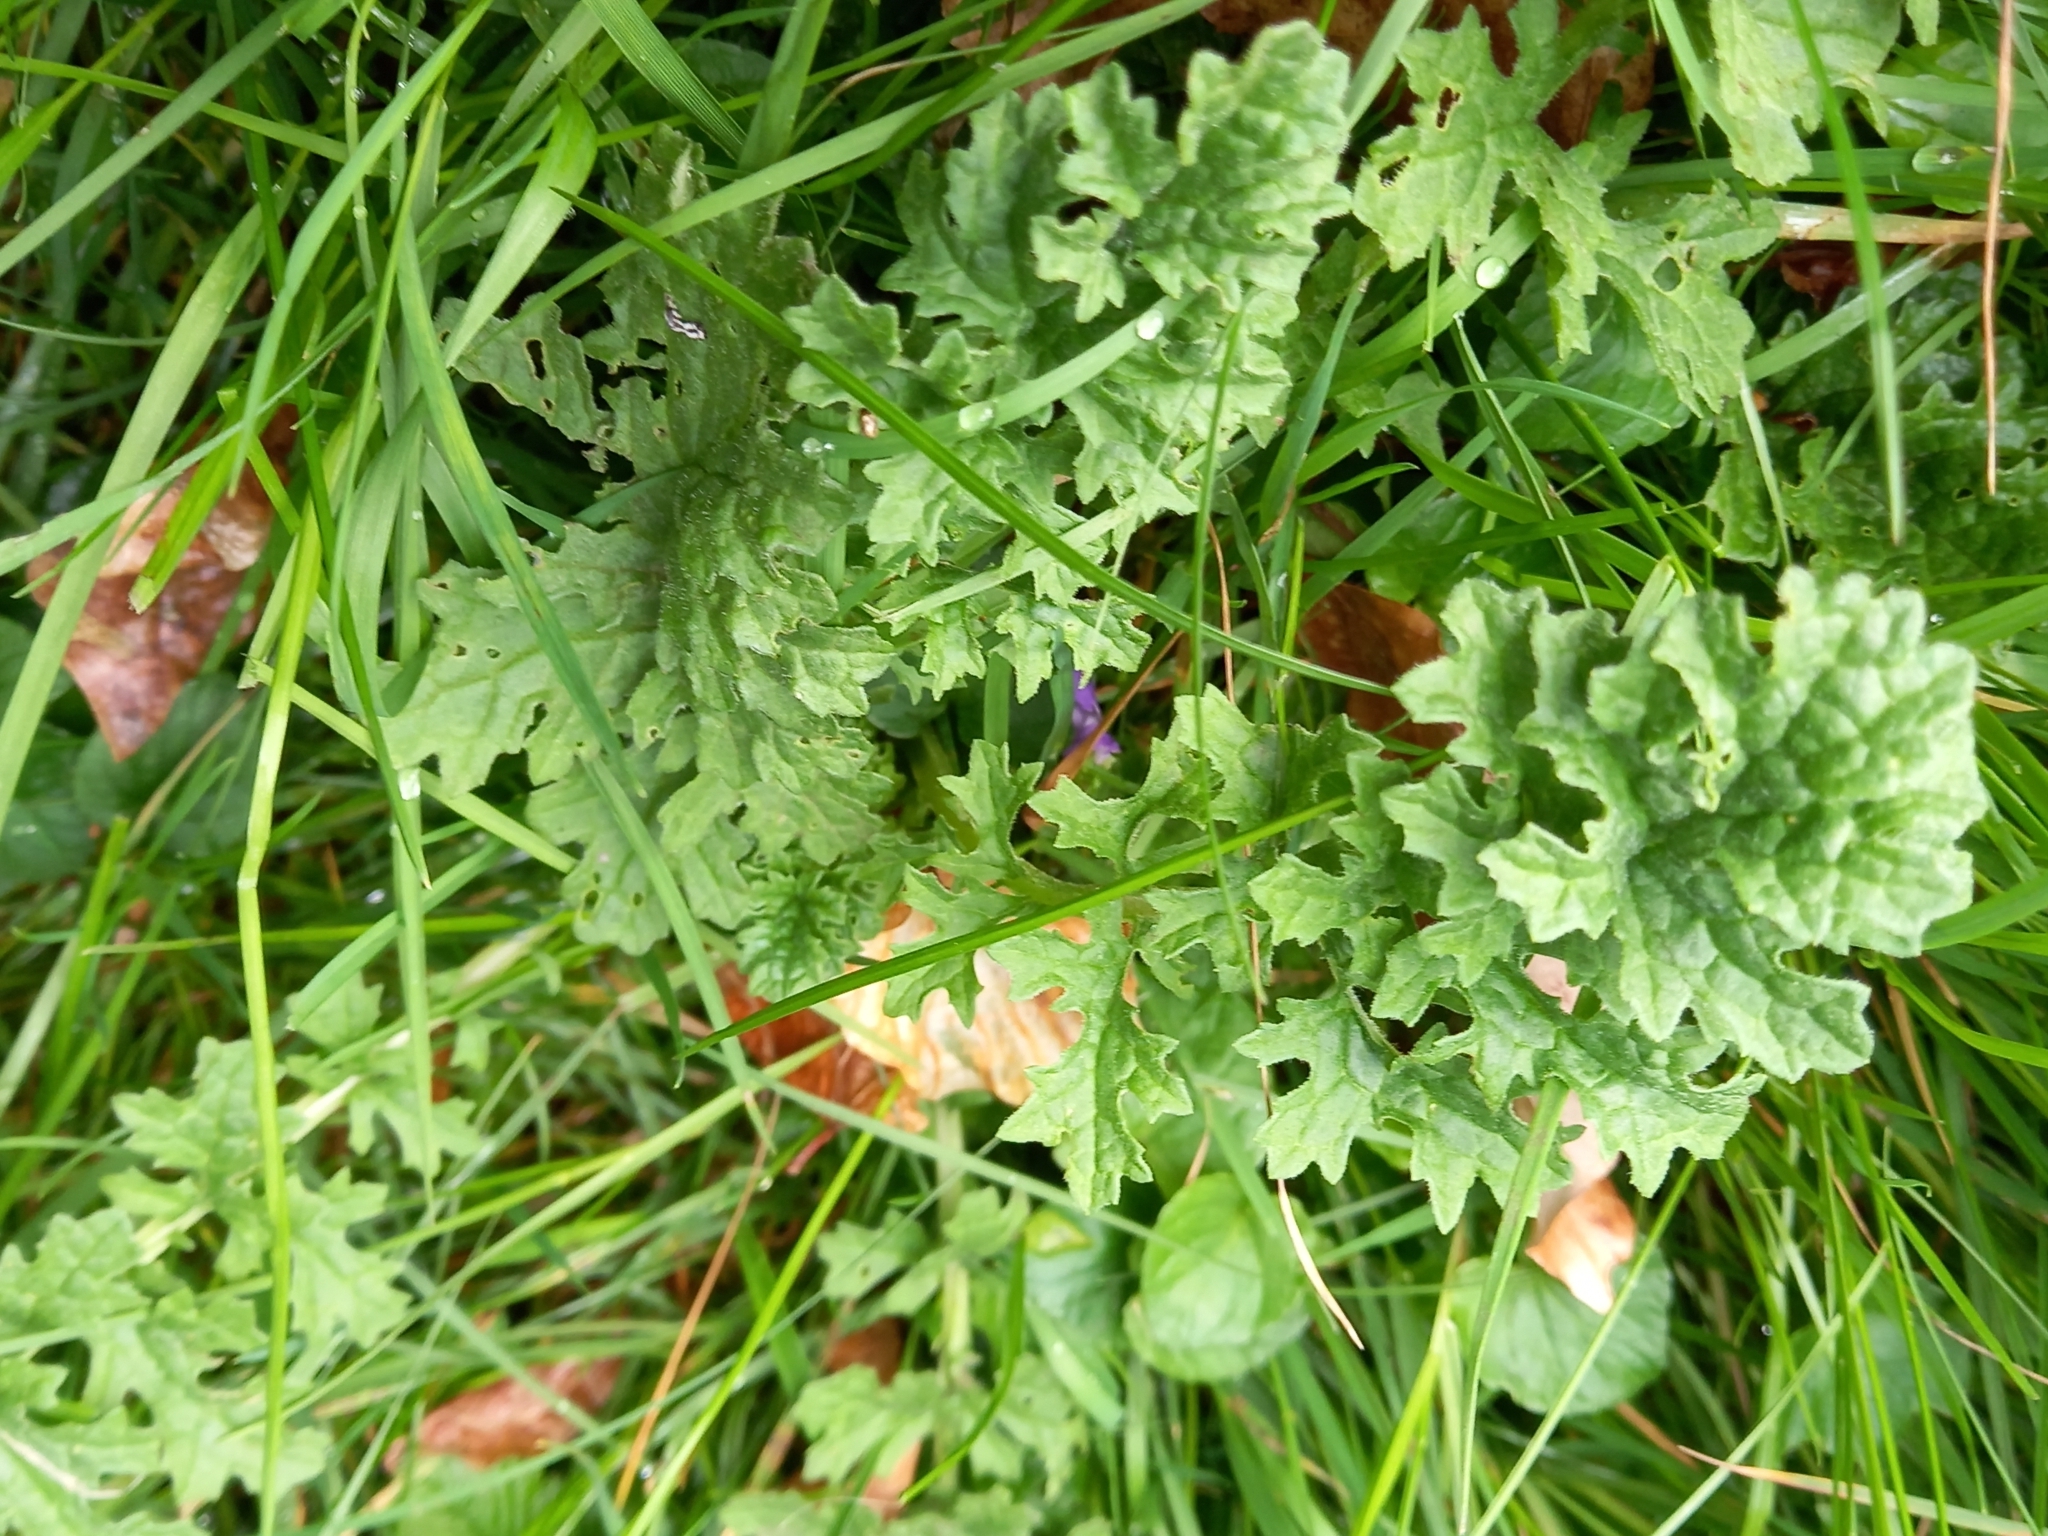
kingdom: Plantae
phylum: Tracheophyta
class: Magnoliopsida
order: Asterales
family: Asteraceae
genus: Jacobaea
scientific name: Jacobaea vulgaris
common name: Stinking willie
